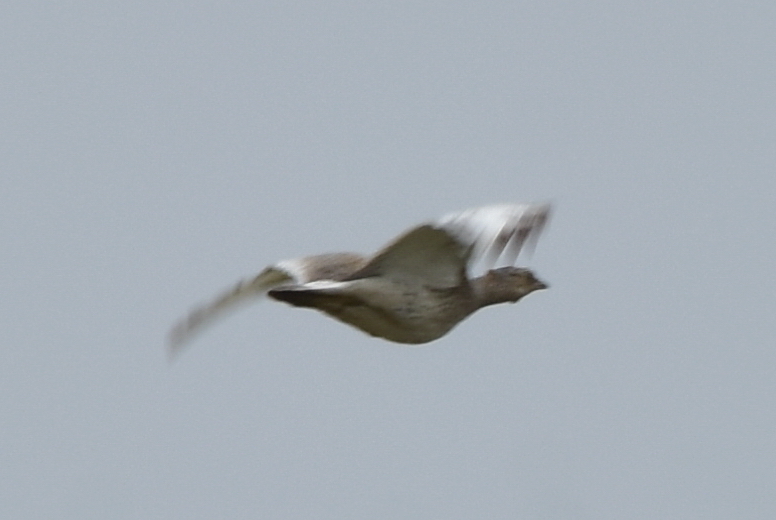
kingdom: Animalia
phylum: Chordata
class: Aves
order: Otidiformes
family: Otididae
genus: Tetrax
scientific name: Tetrax tetrax
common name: Little bustard
